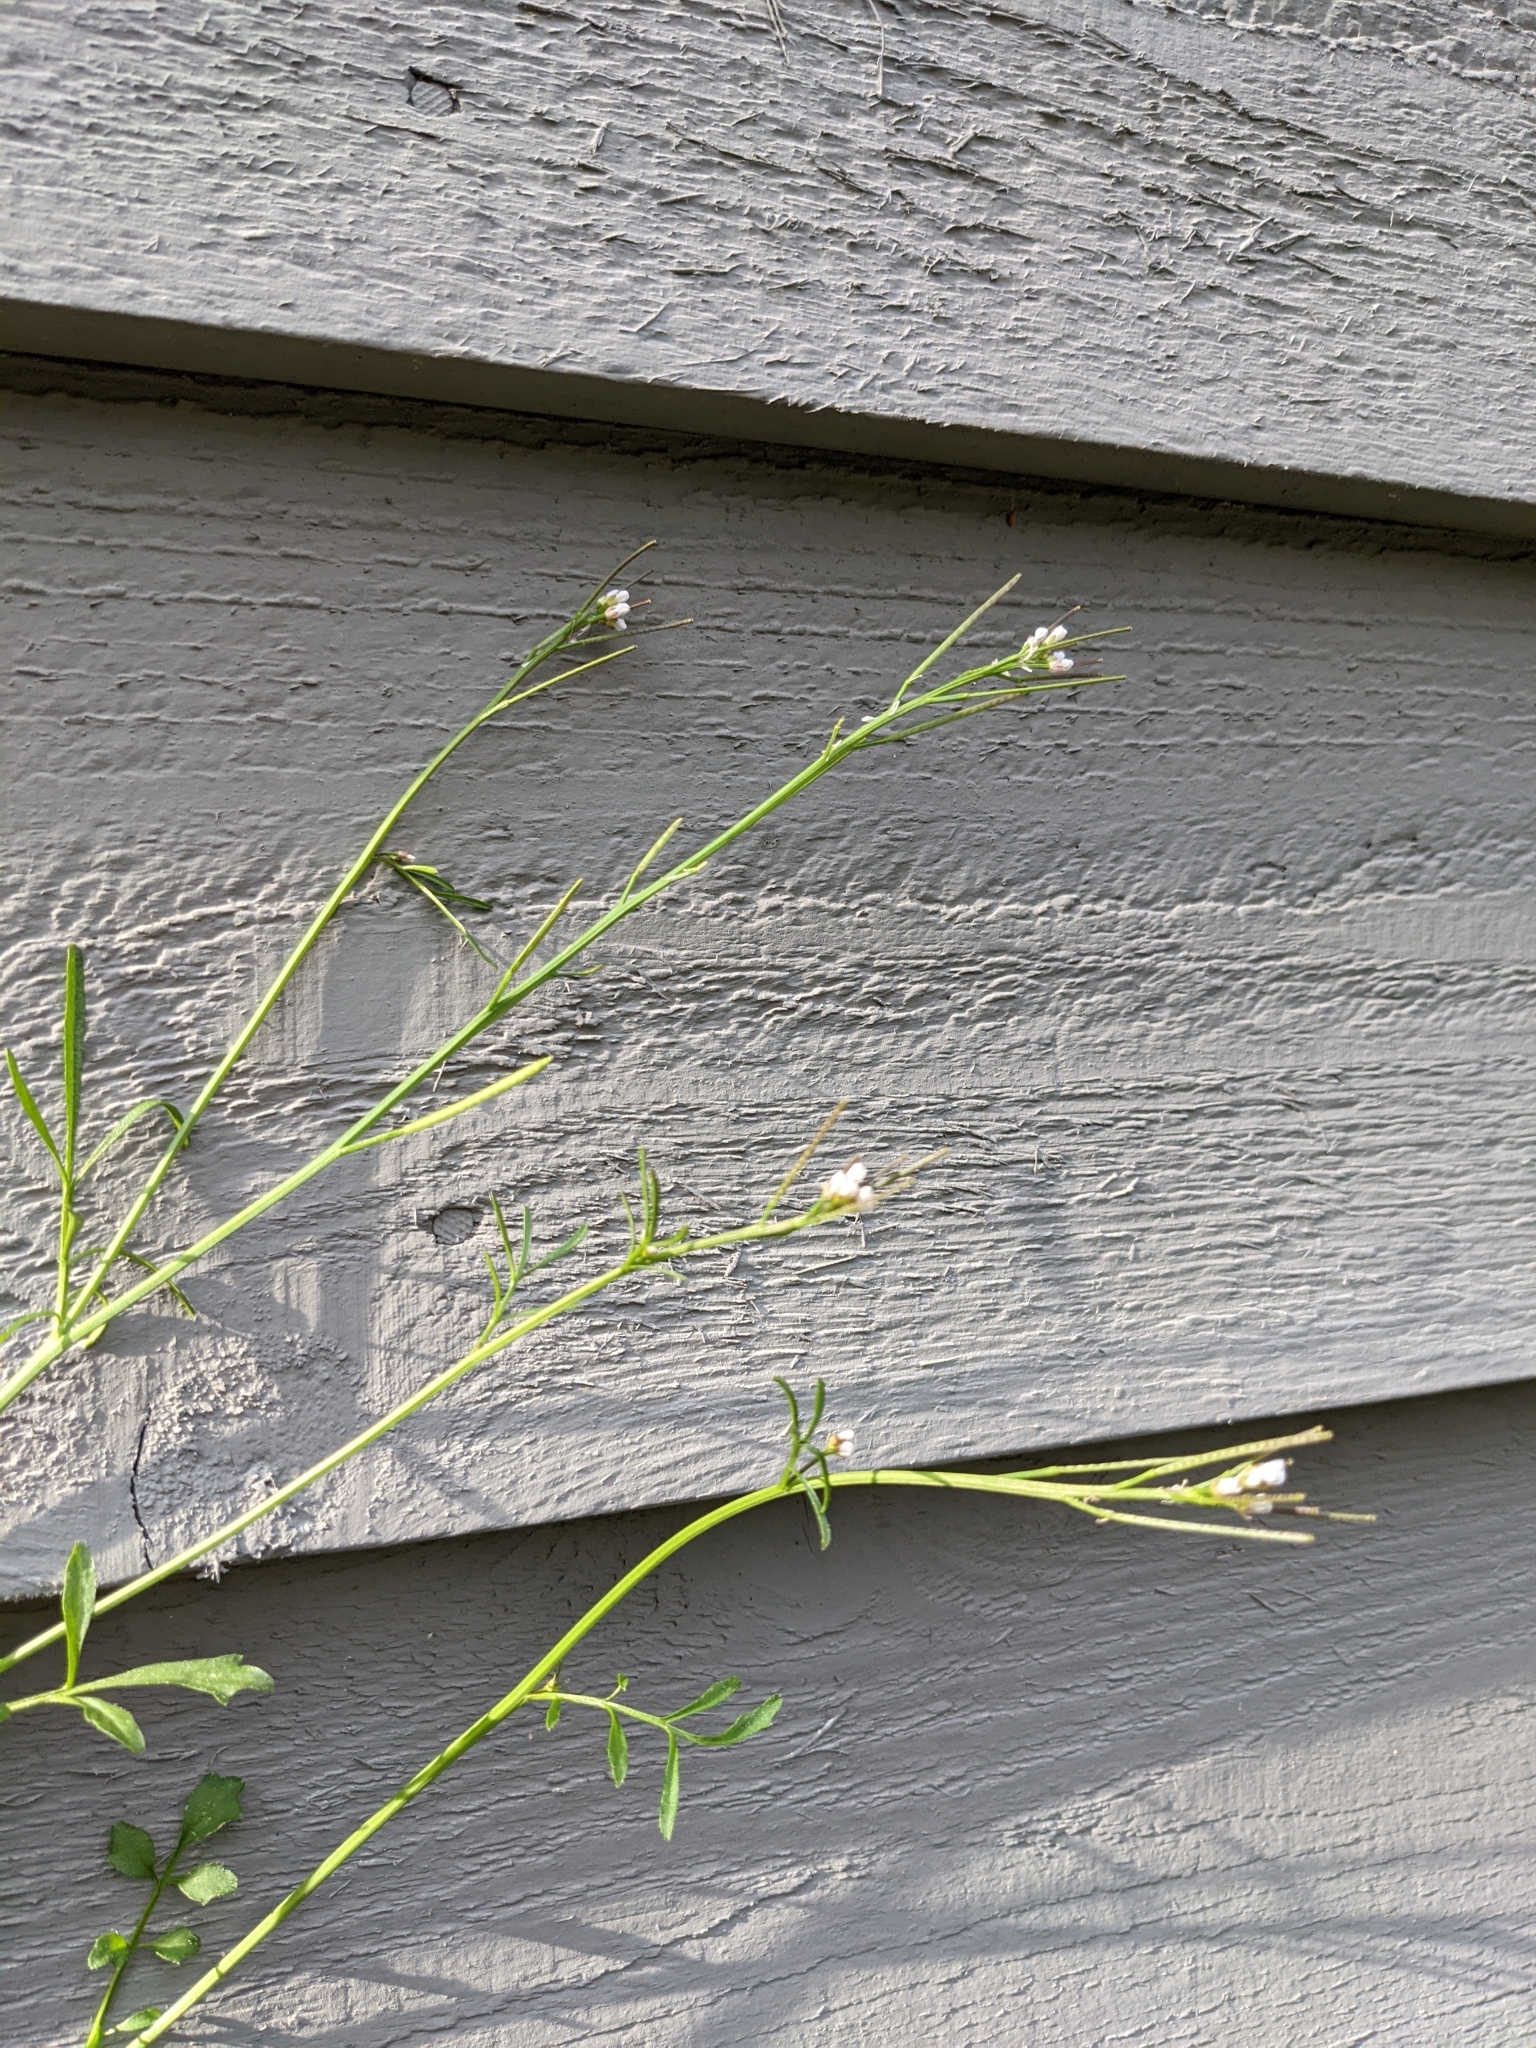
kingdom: Plantae
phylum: Tracheophyta
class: Magnoliopsida
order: Brassicales
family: Brassicaceae
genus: Cardamine
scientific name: Cardamine hirsuta
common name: Hairy bittercress
